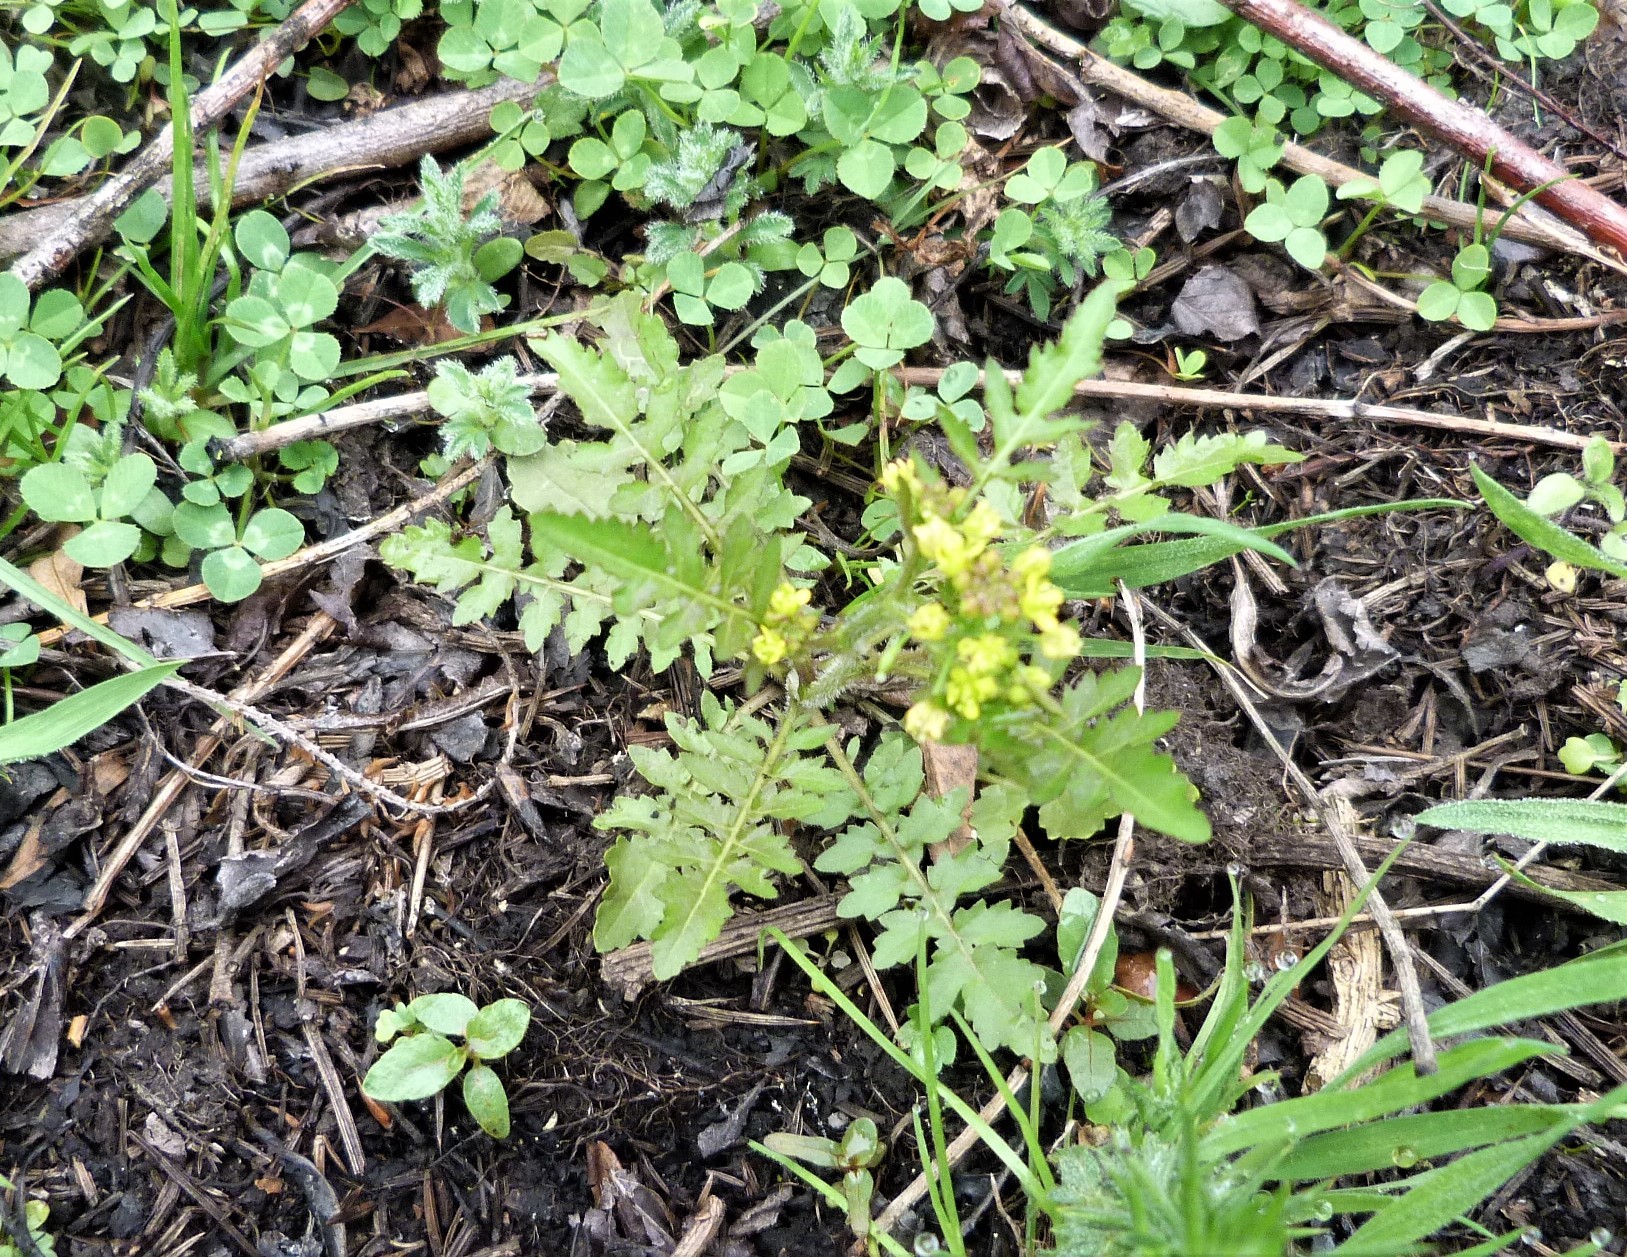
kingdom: Plantae
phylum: Tracheophyta
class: Magnoliopsida
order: Brassicales
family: Brassicaceae
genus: Rorippa
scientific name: Rorippa palustris
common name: Marsh yellow-cress
